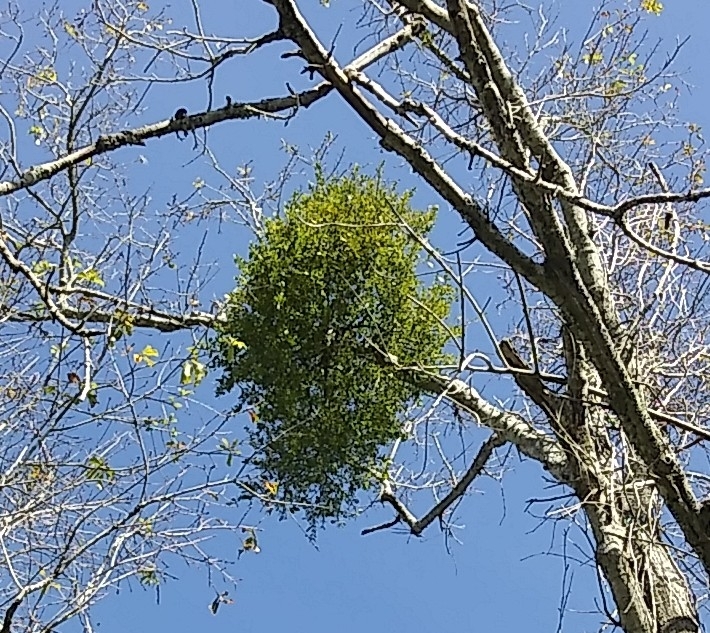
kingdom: Plantae
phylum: Tracheophyta
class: Magnoliopsida
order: Santalales
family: Viscaceae
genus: Phoradendron
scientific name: Phoradendron leucarpum
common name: Pacific mistletoe
